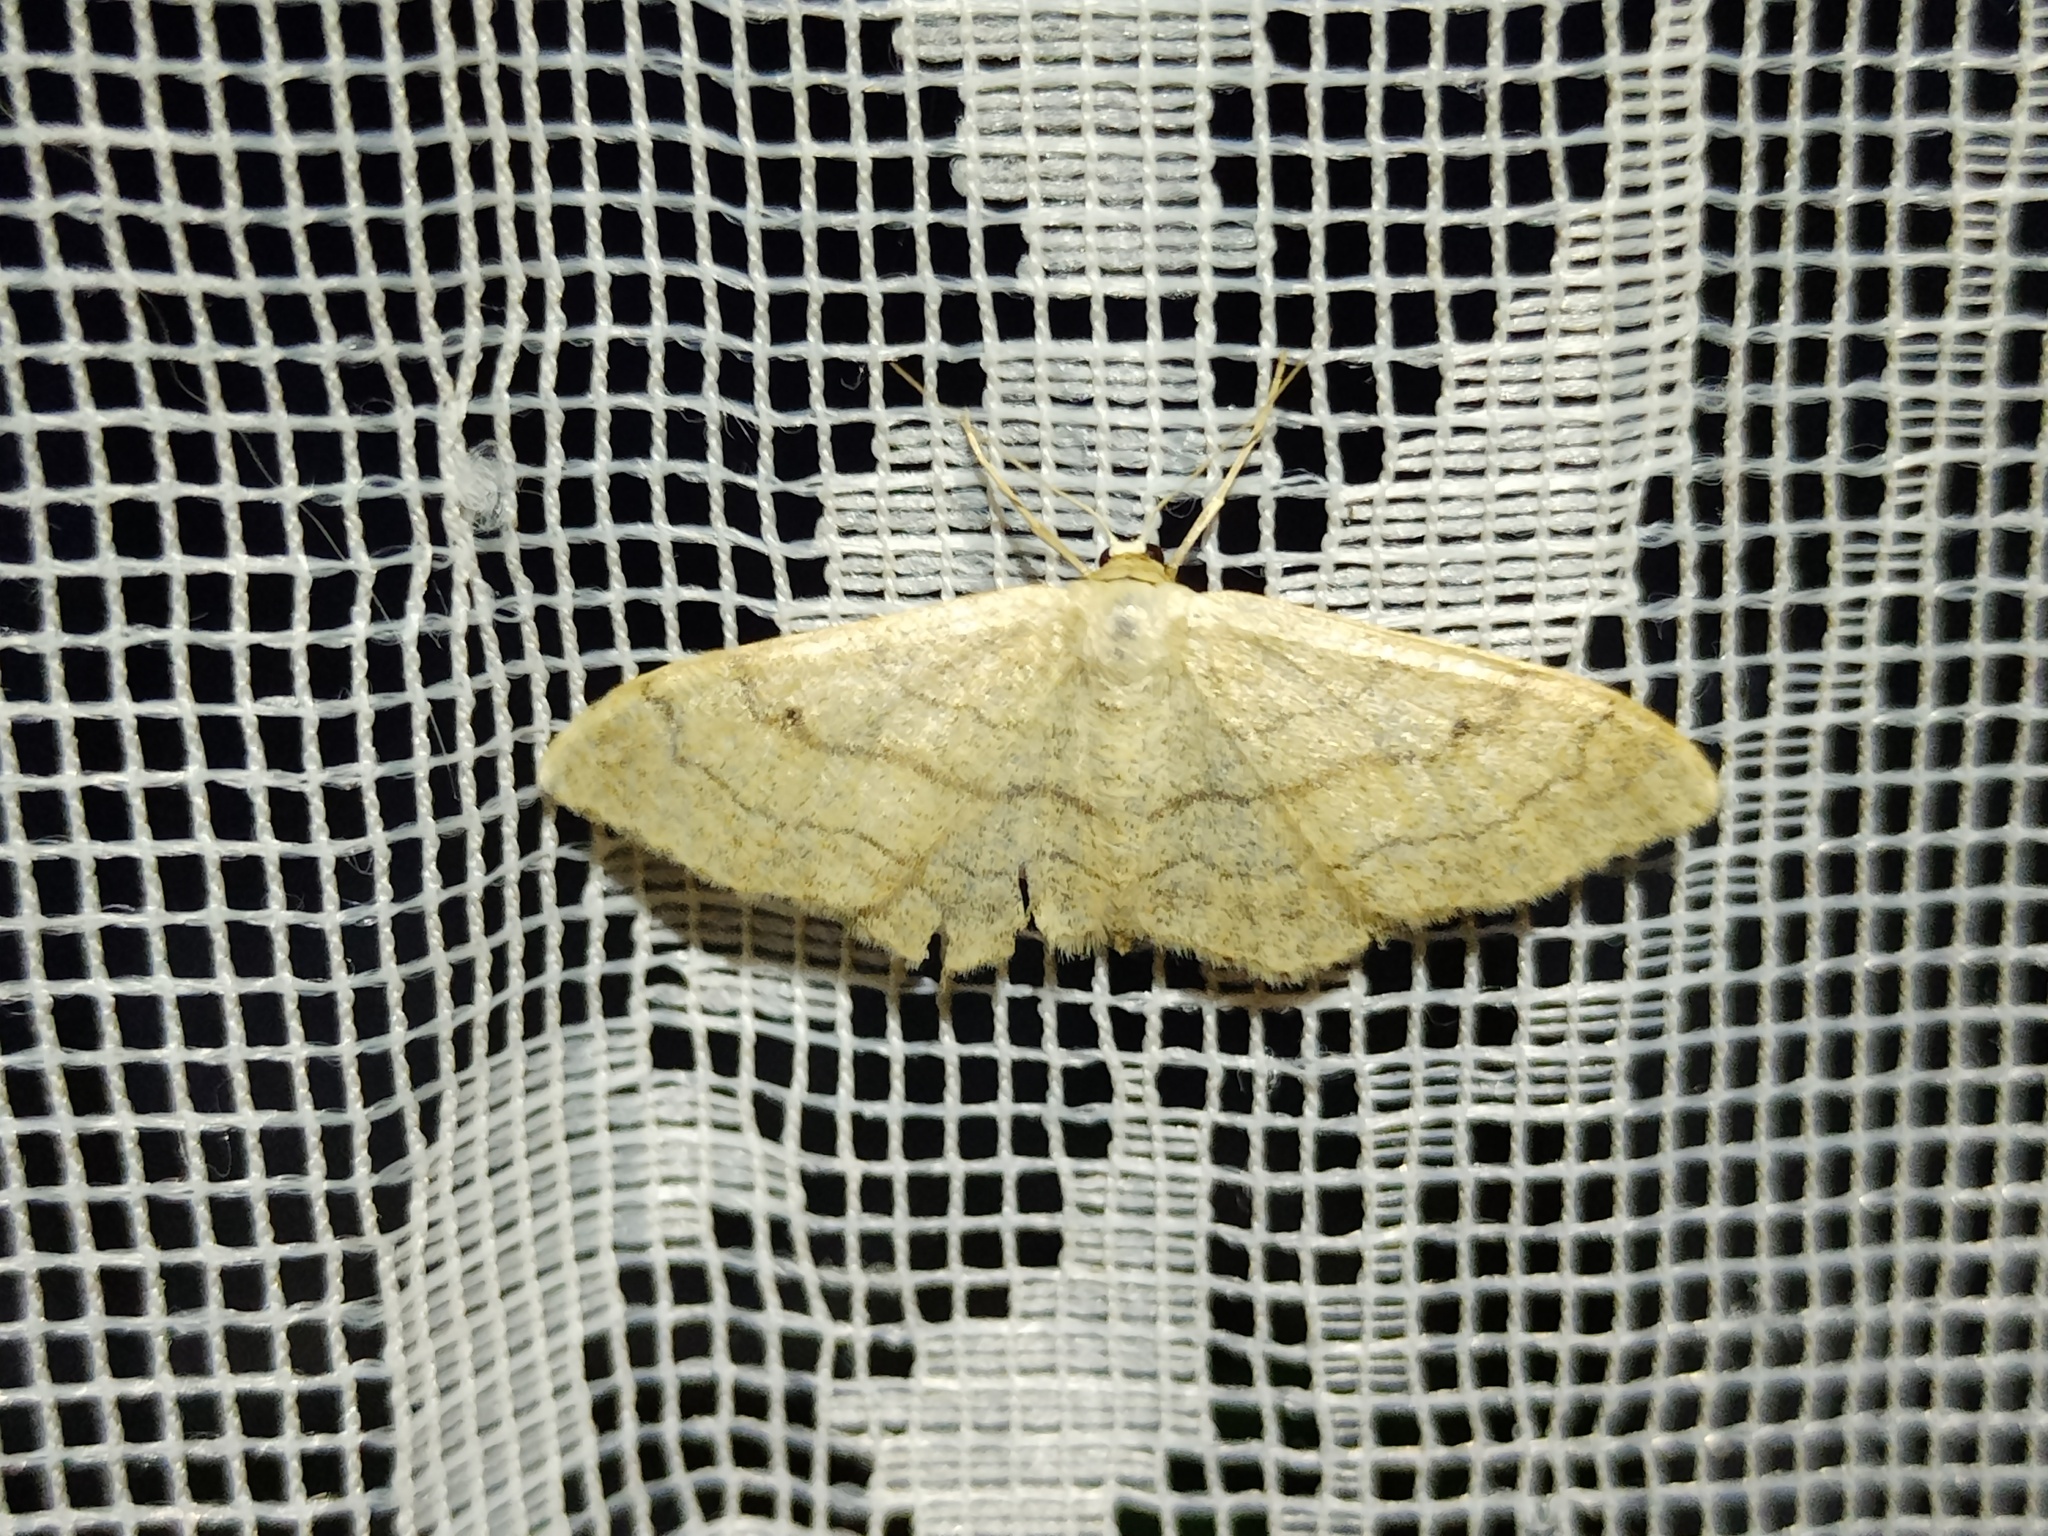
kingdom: Animalia
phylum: Arthropoda
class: Insecta
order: Lepidoptera
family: Geometridae
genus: Idaea
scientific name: Idaea aversata
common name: Riband wave
